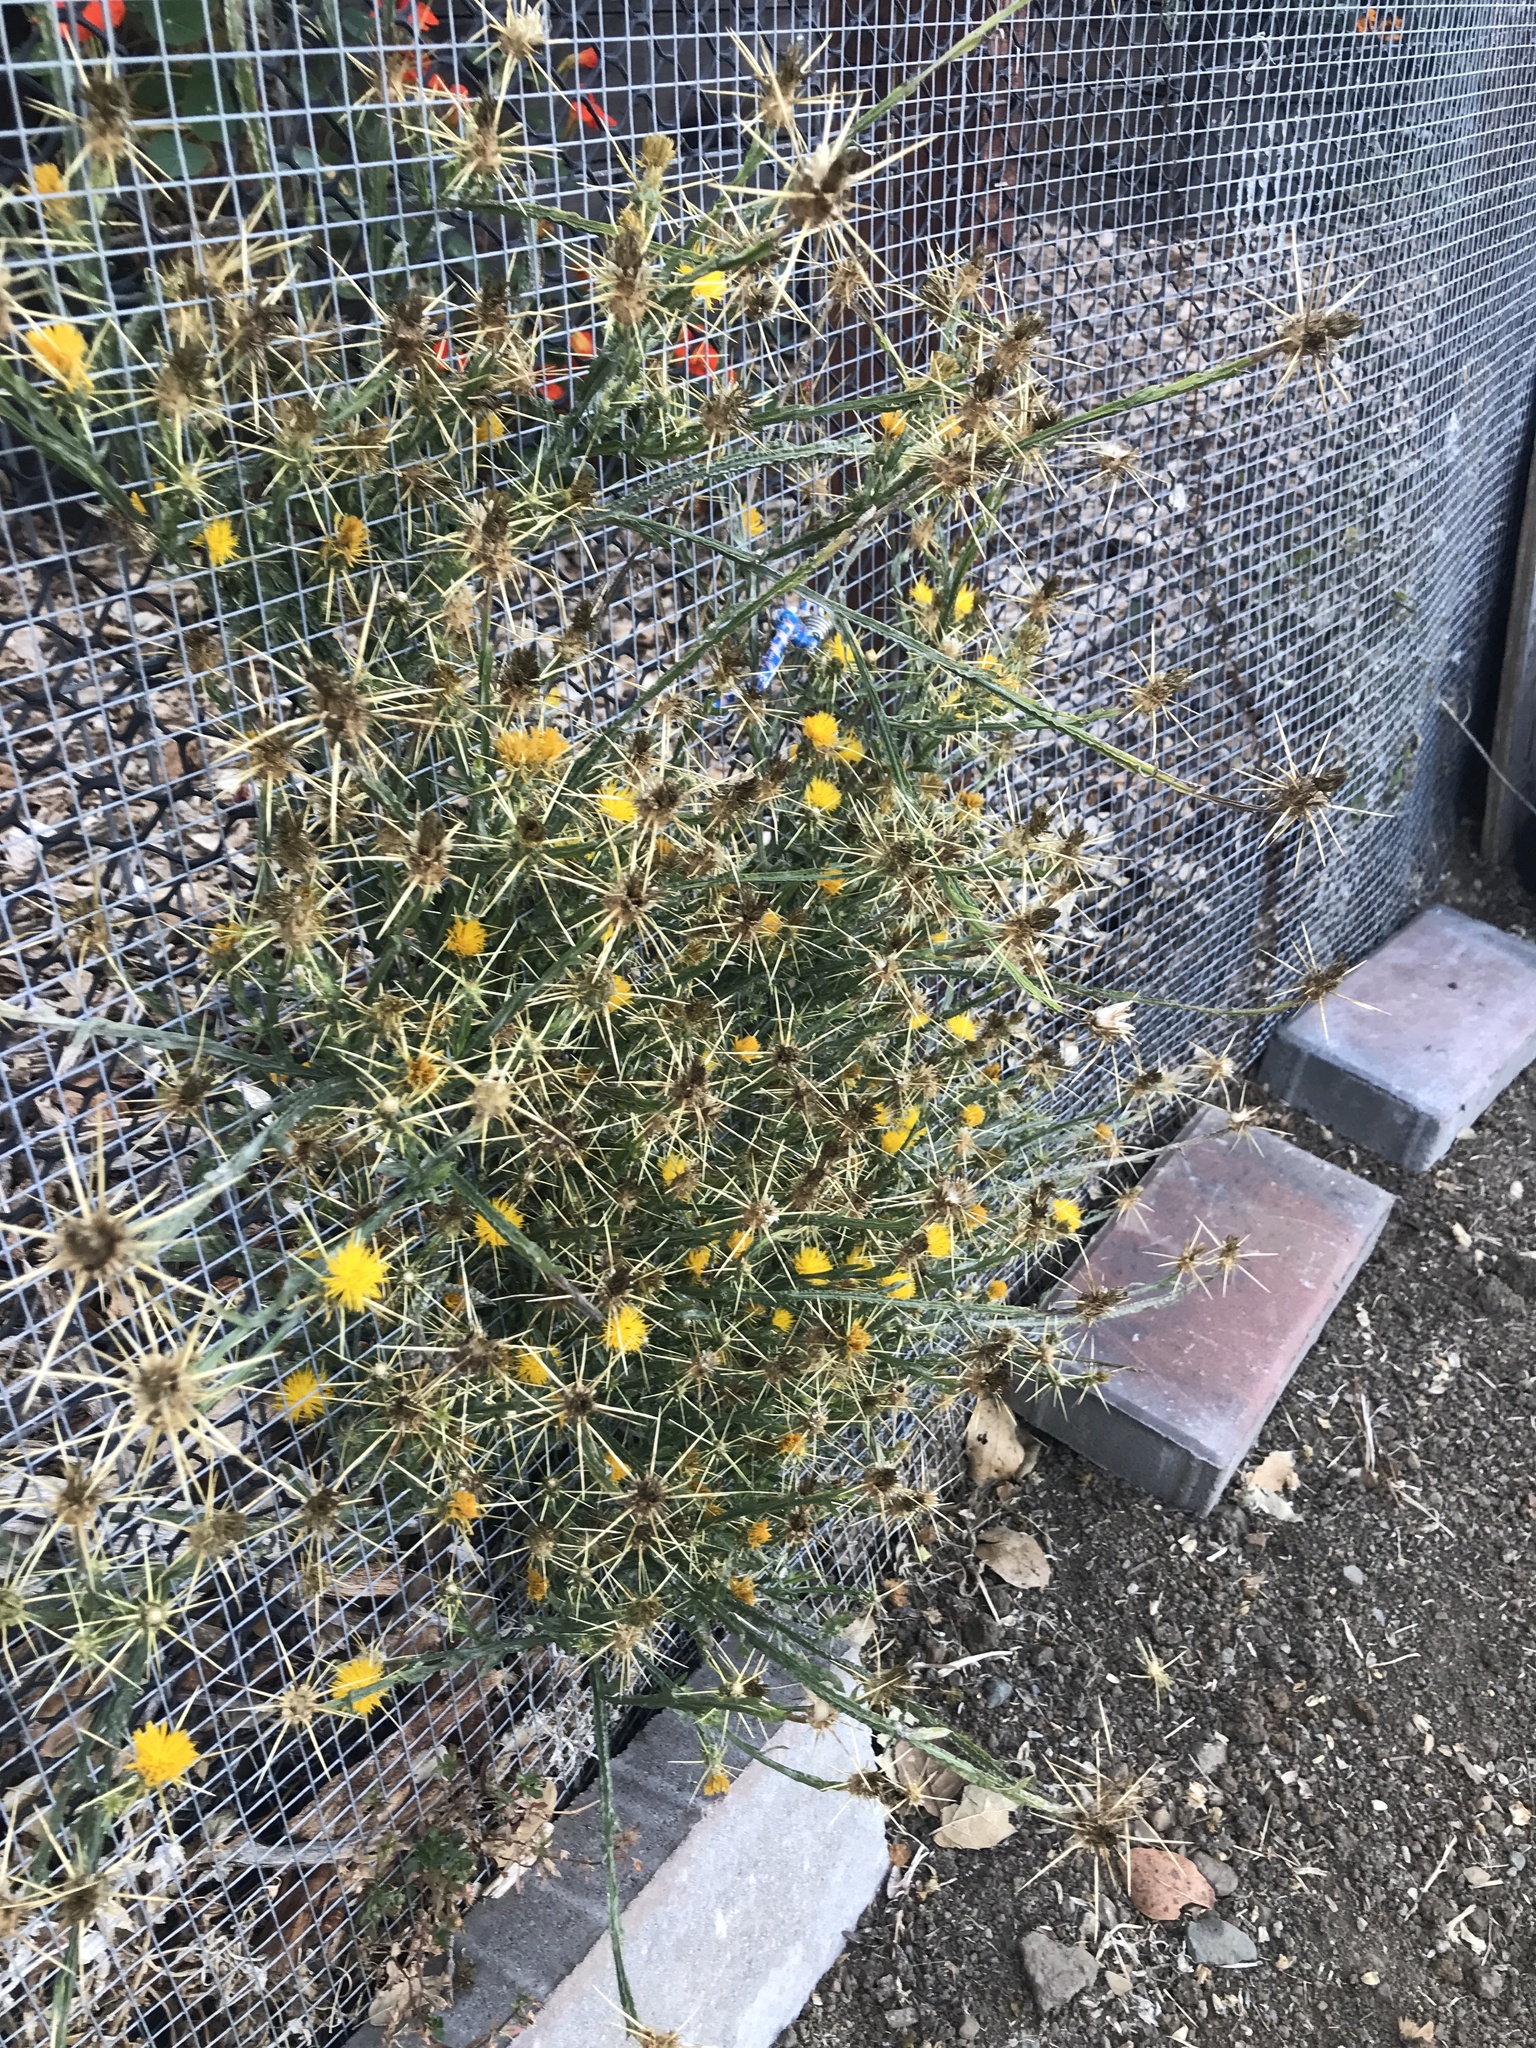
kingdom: Plantae
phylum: Tracheophyta
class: Magnoliopsida
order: Asterales
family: Asteraceae
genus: Centaurea
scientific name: Centaurea solstitialis
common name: Yellow star-thistle
